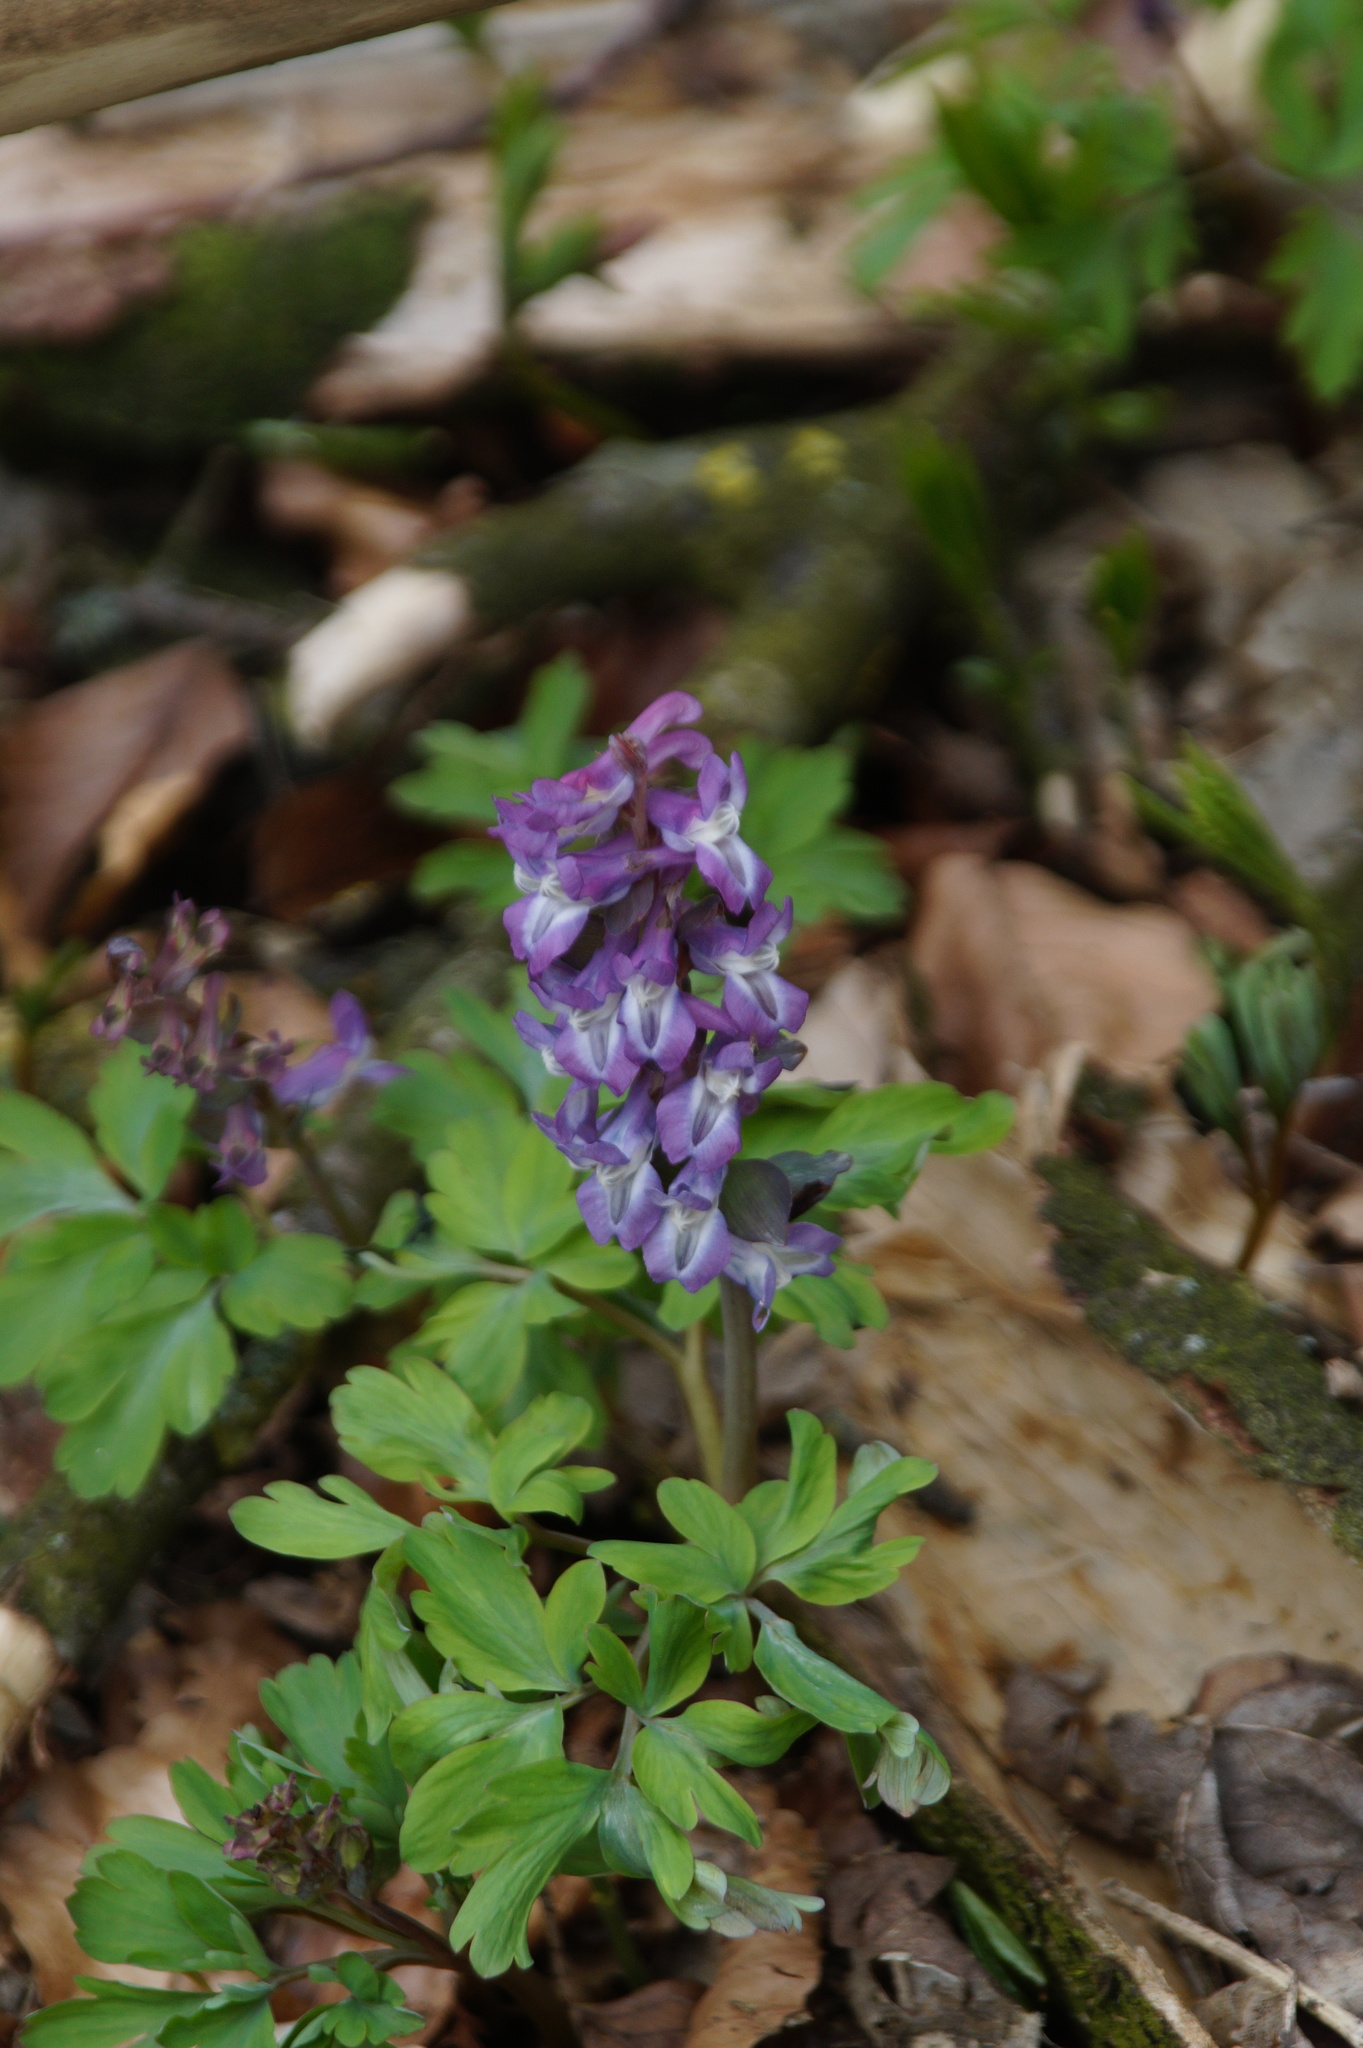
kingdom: Plantae
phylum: Tracheophyta
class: Magnoliopsida
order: Ranunculales
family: Papaveraceae
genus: Corydalis
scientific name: Corydalis cava
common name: Hollowroot
